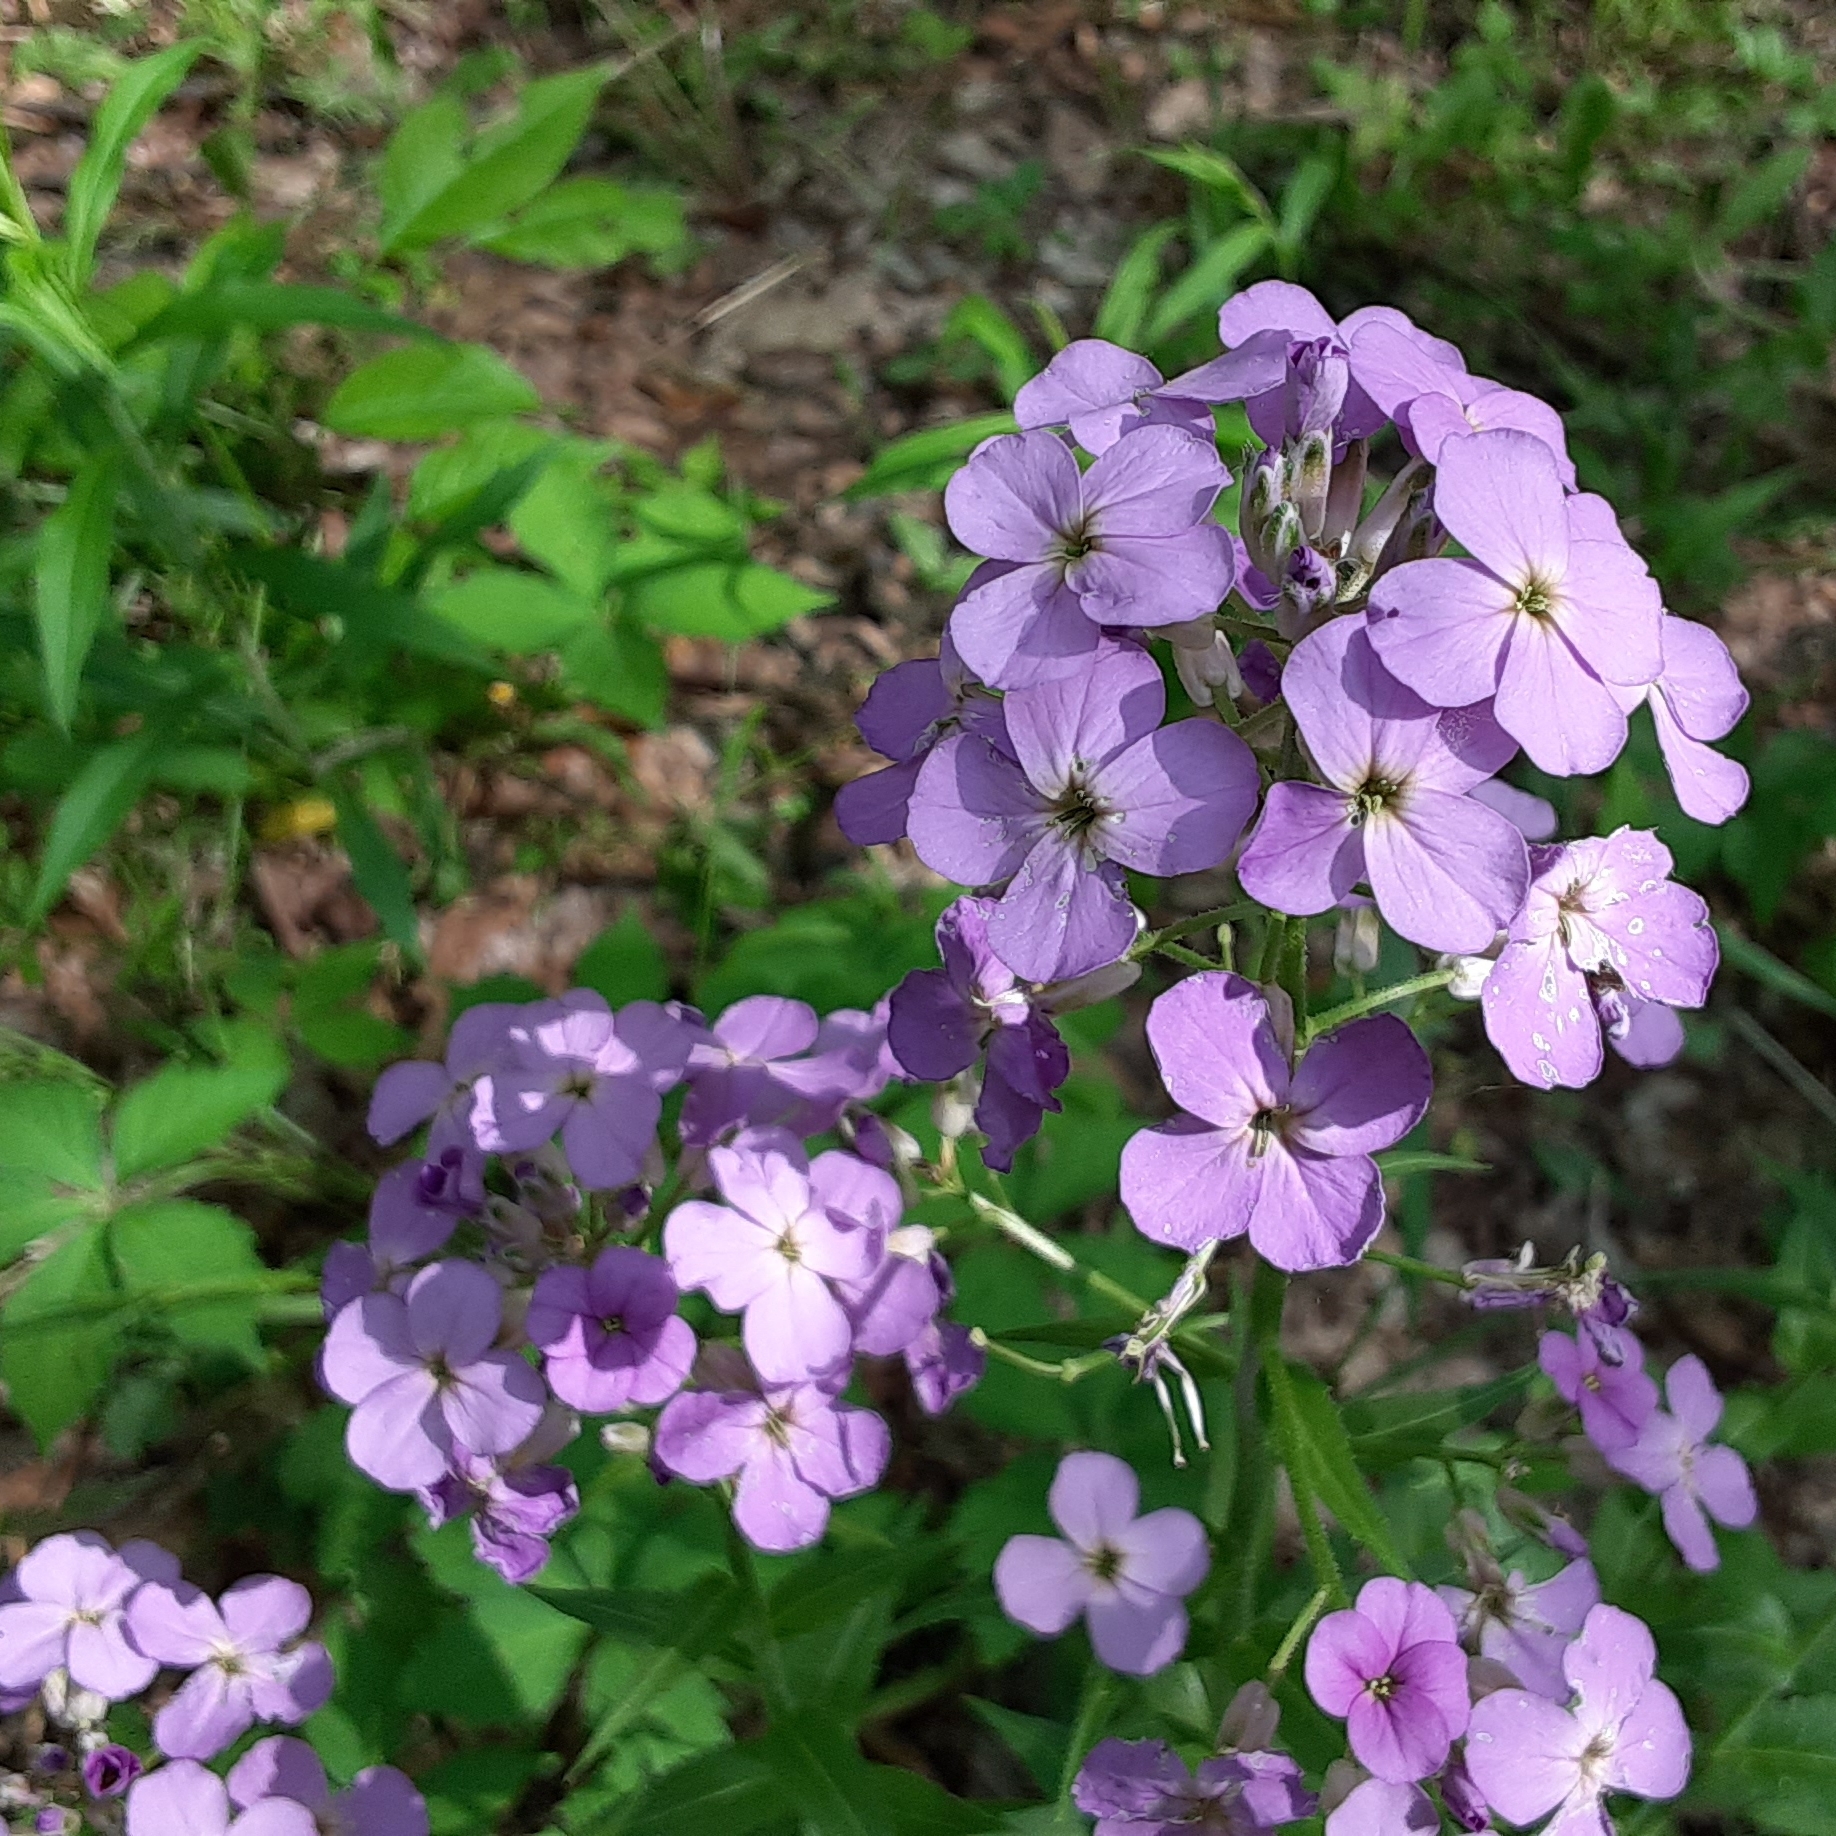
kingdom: Plantae
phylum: Tracheophyta
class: Magnoliopsida
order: Brassicales
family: Brassicaceae
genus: Hesperis
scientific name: Hesperis matronalis
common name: Dame's-violet
